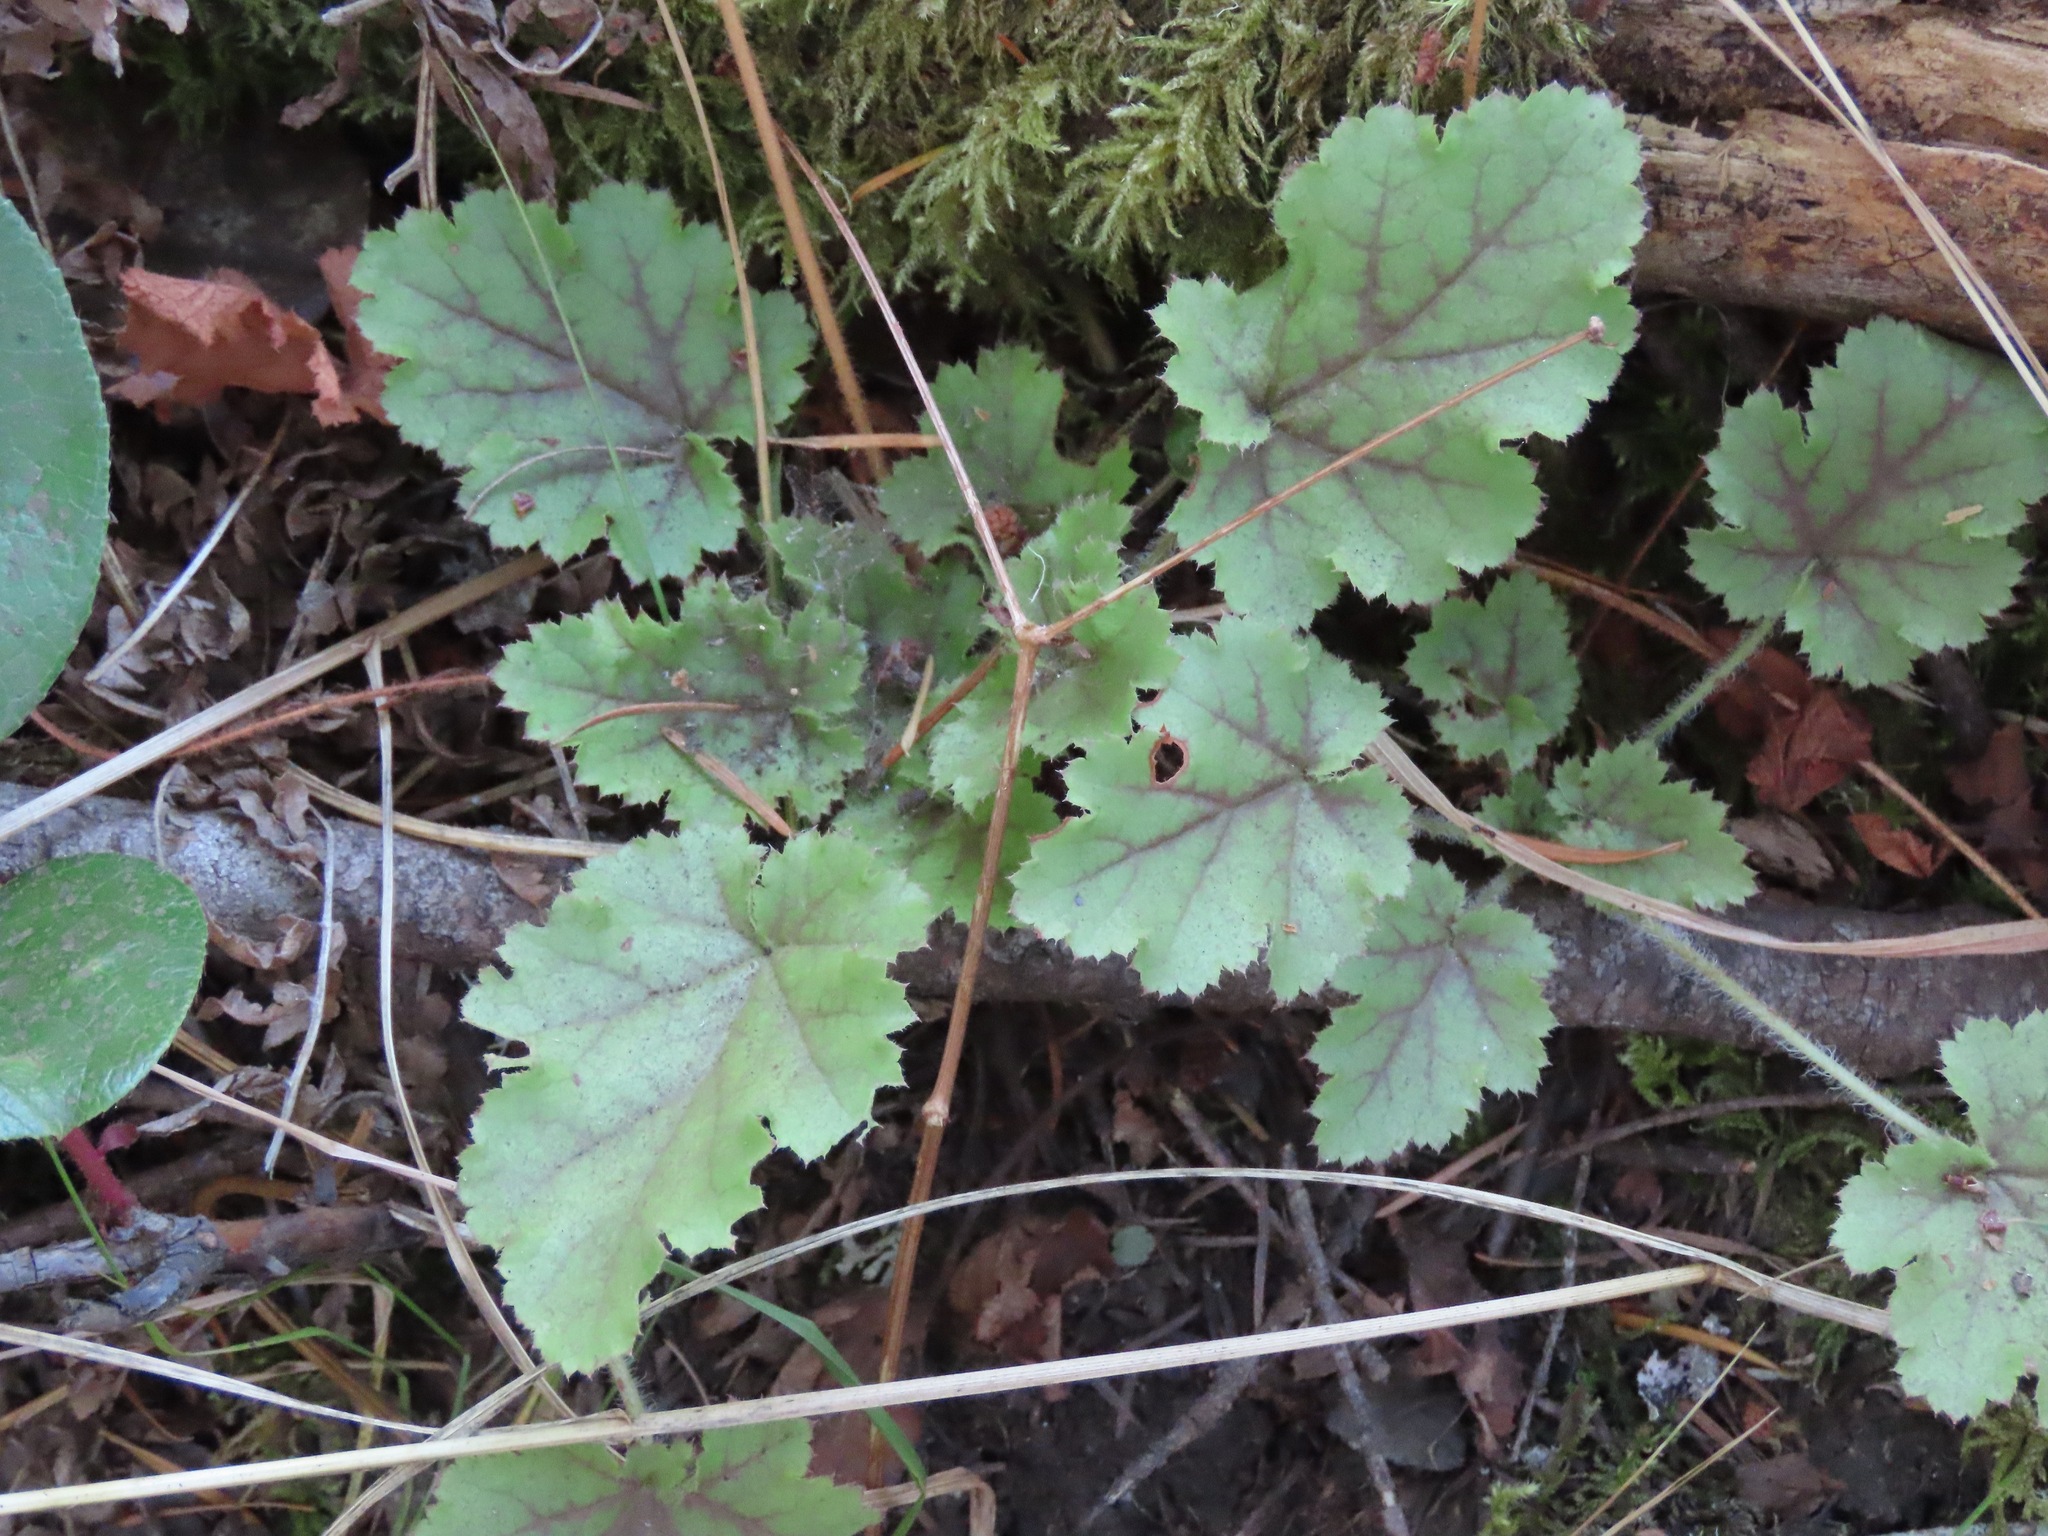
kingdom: Plantae
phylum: Tracheophyta
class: Magnoliopsida
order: Saxifragales
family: Saxifragaceae
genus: Heuchera
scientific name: Heuchera micrantha
